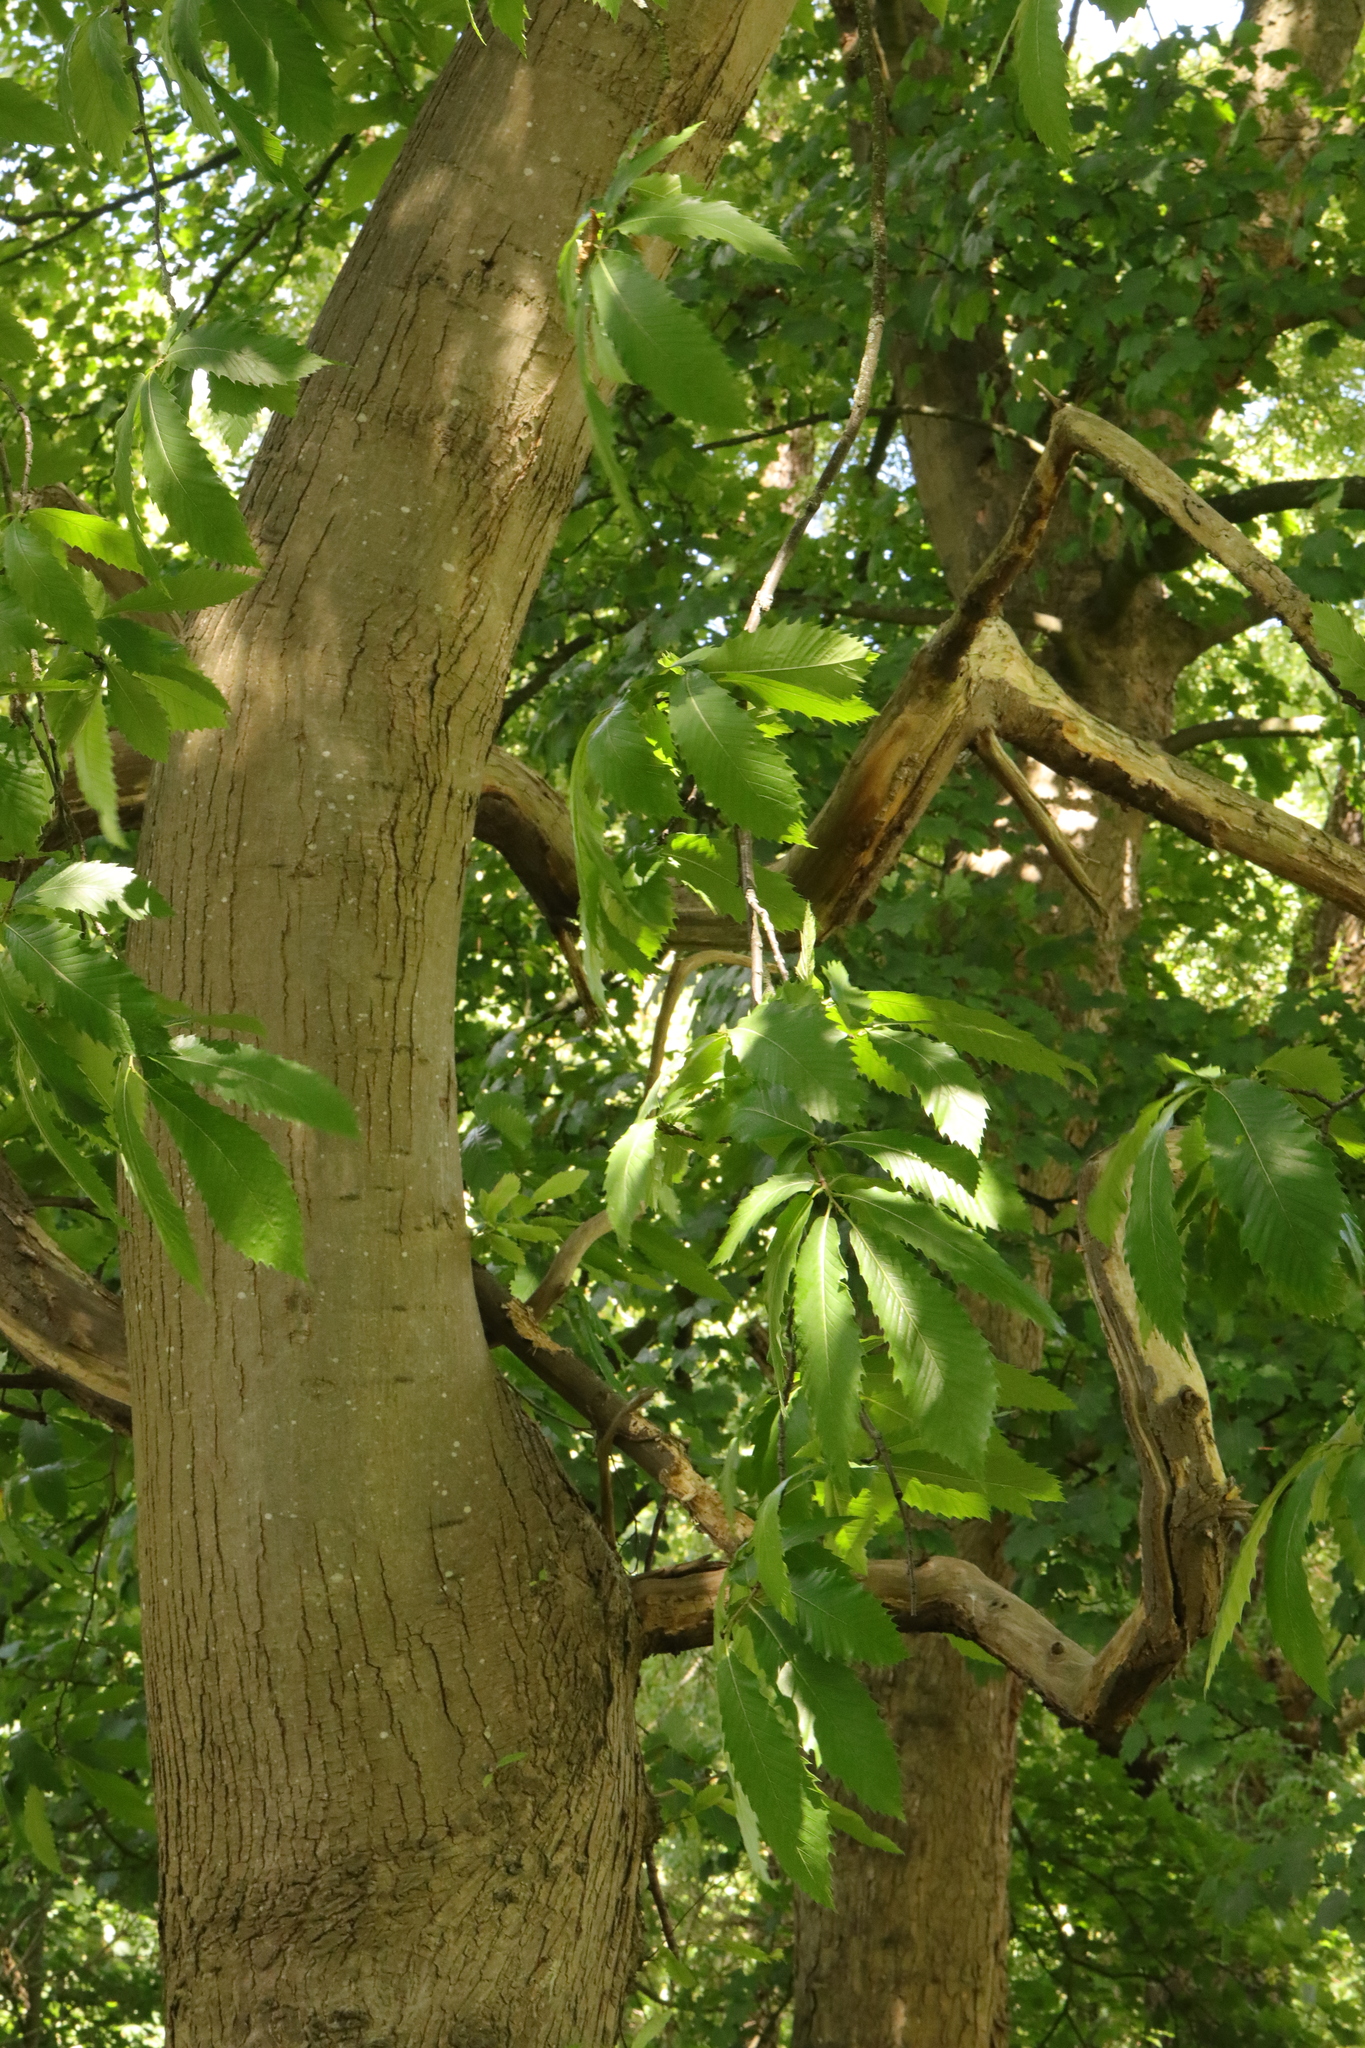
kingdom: Plantae
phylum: Tracheophyta
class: Magnoliopsida
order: Fagales
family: Fagaceae
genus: Castanea
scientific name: Castanea sativa
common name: Sweet chestnut
